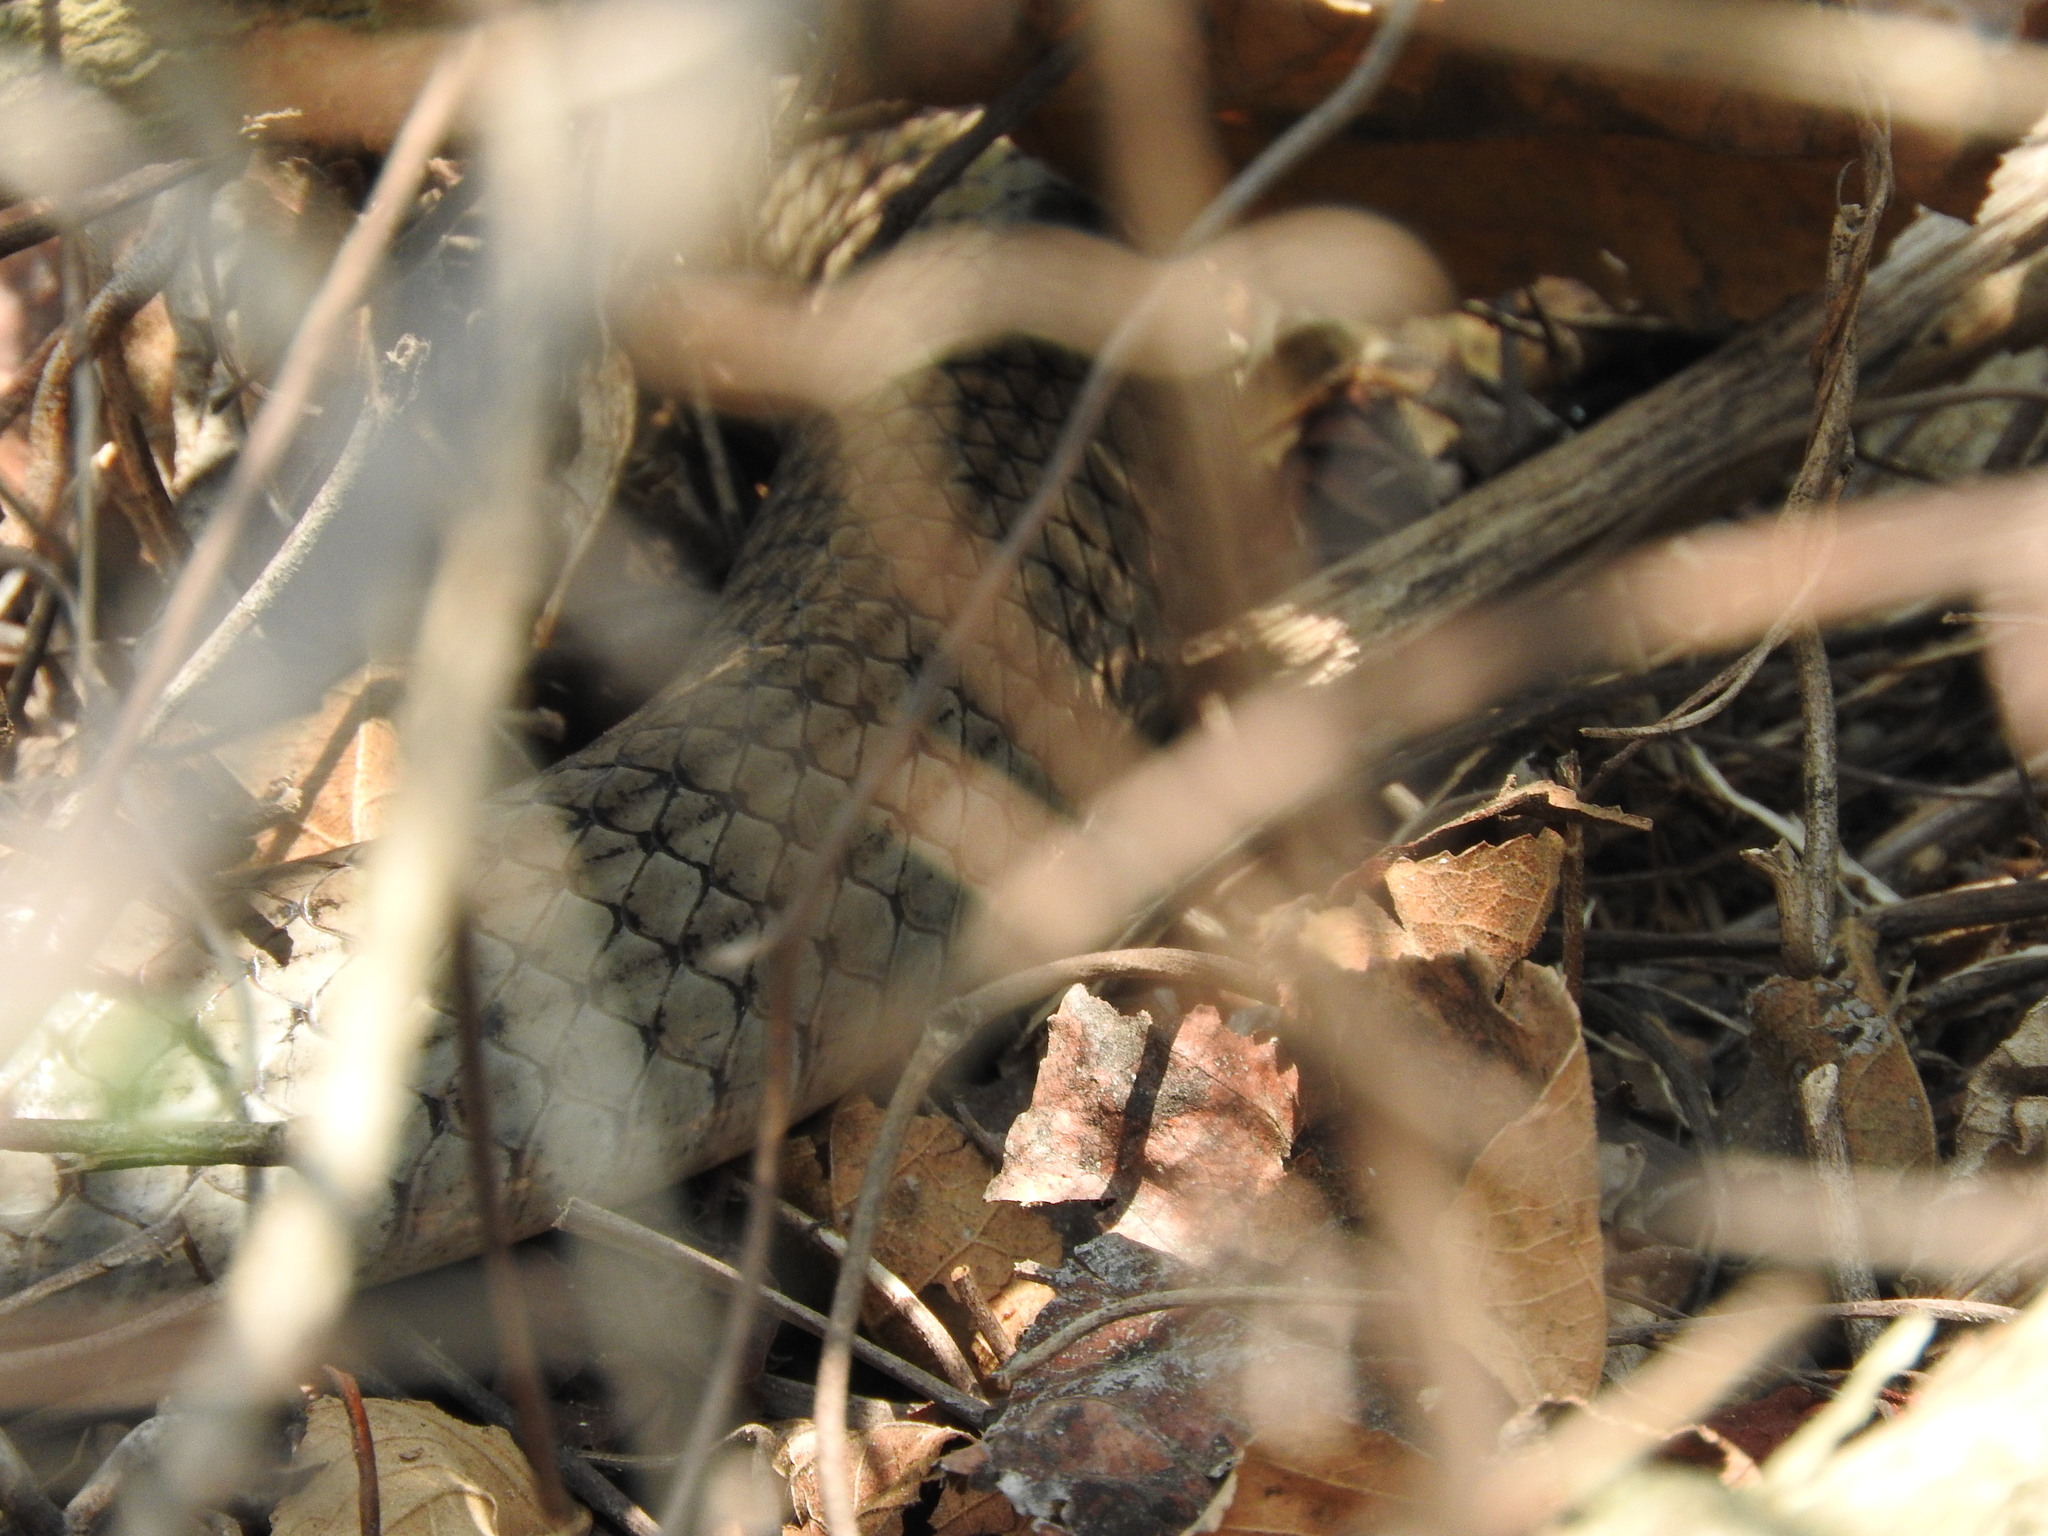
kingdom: Animalia
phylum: Chordata
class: Squamata
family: Colubridae
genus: Masticophis
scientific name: Masticophis mentovarius
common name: Neotropical whip snake
